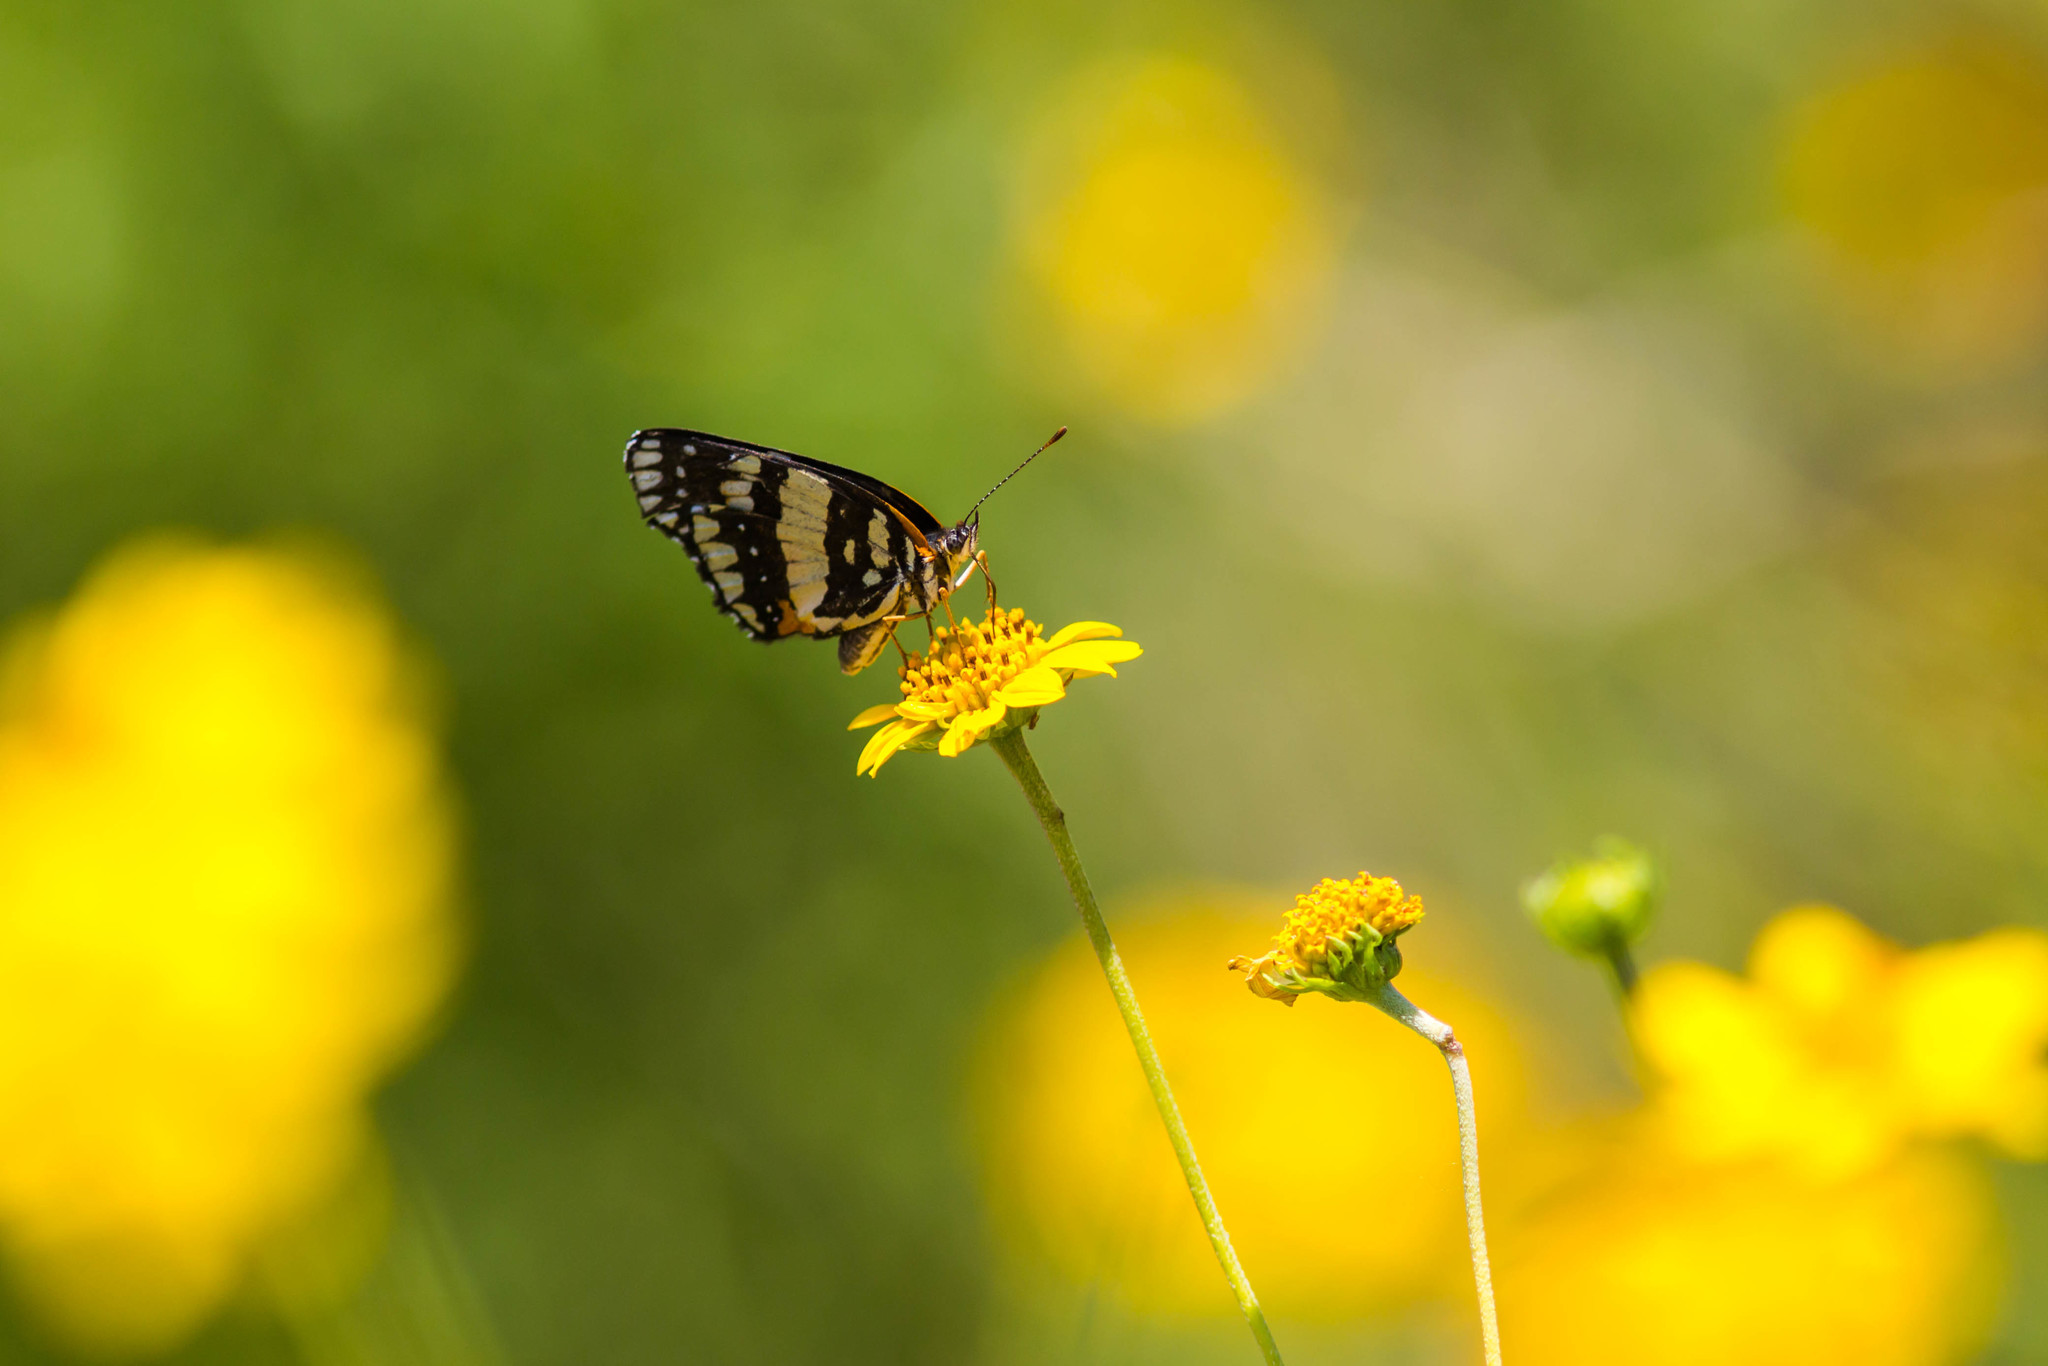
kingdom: Animalia
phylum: Arthropoda
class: Insecta
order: Lepidoptera
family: Nymphalidae
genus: Chlosyne
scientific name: Chlosyne lacinia
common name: Bordered patch
